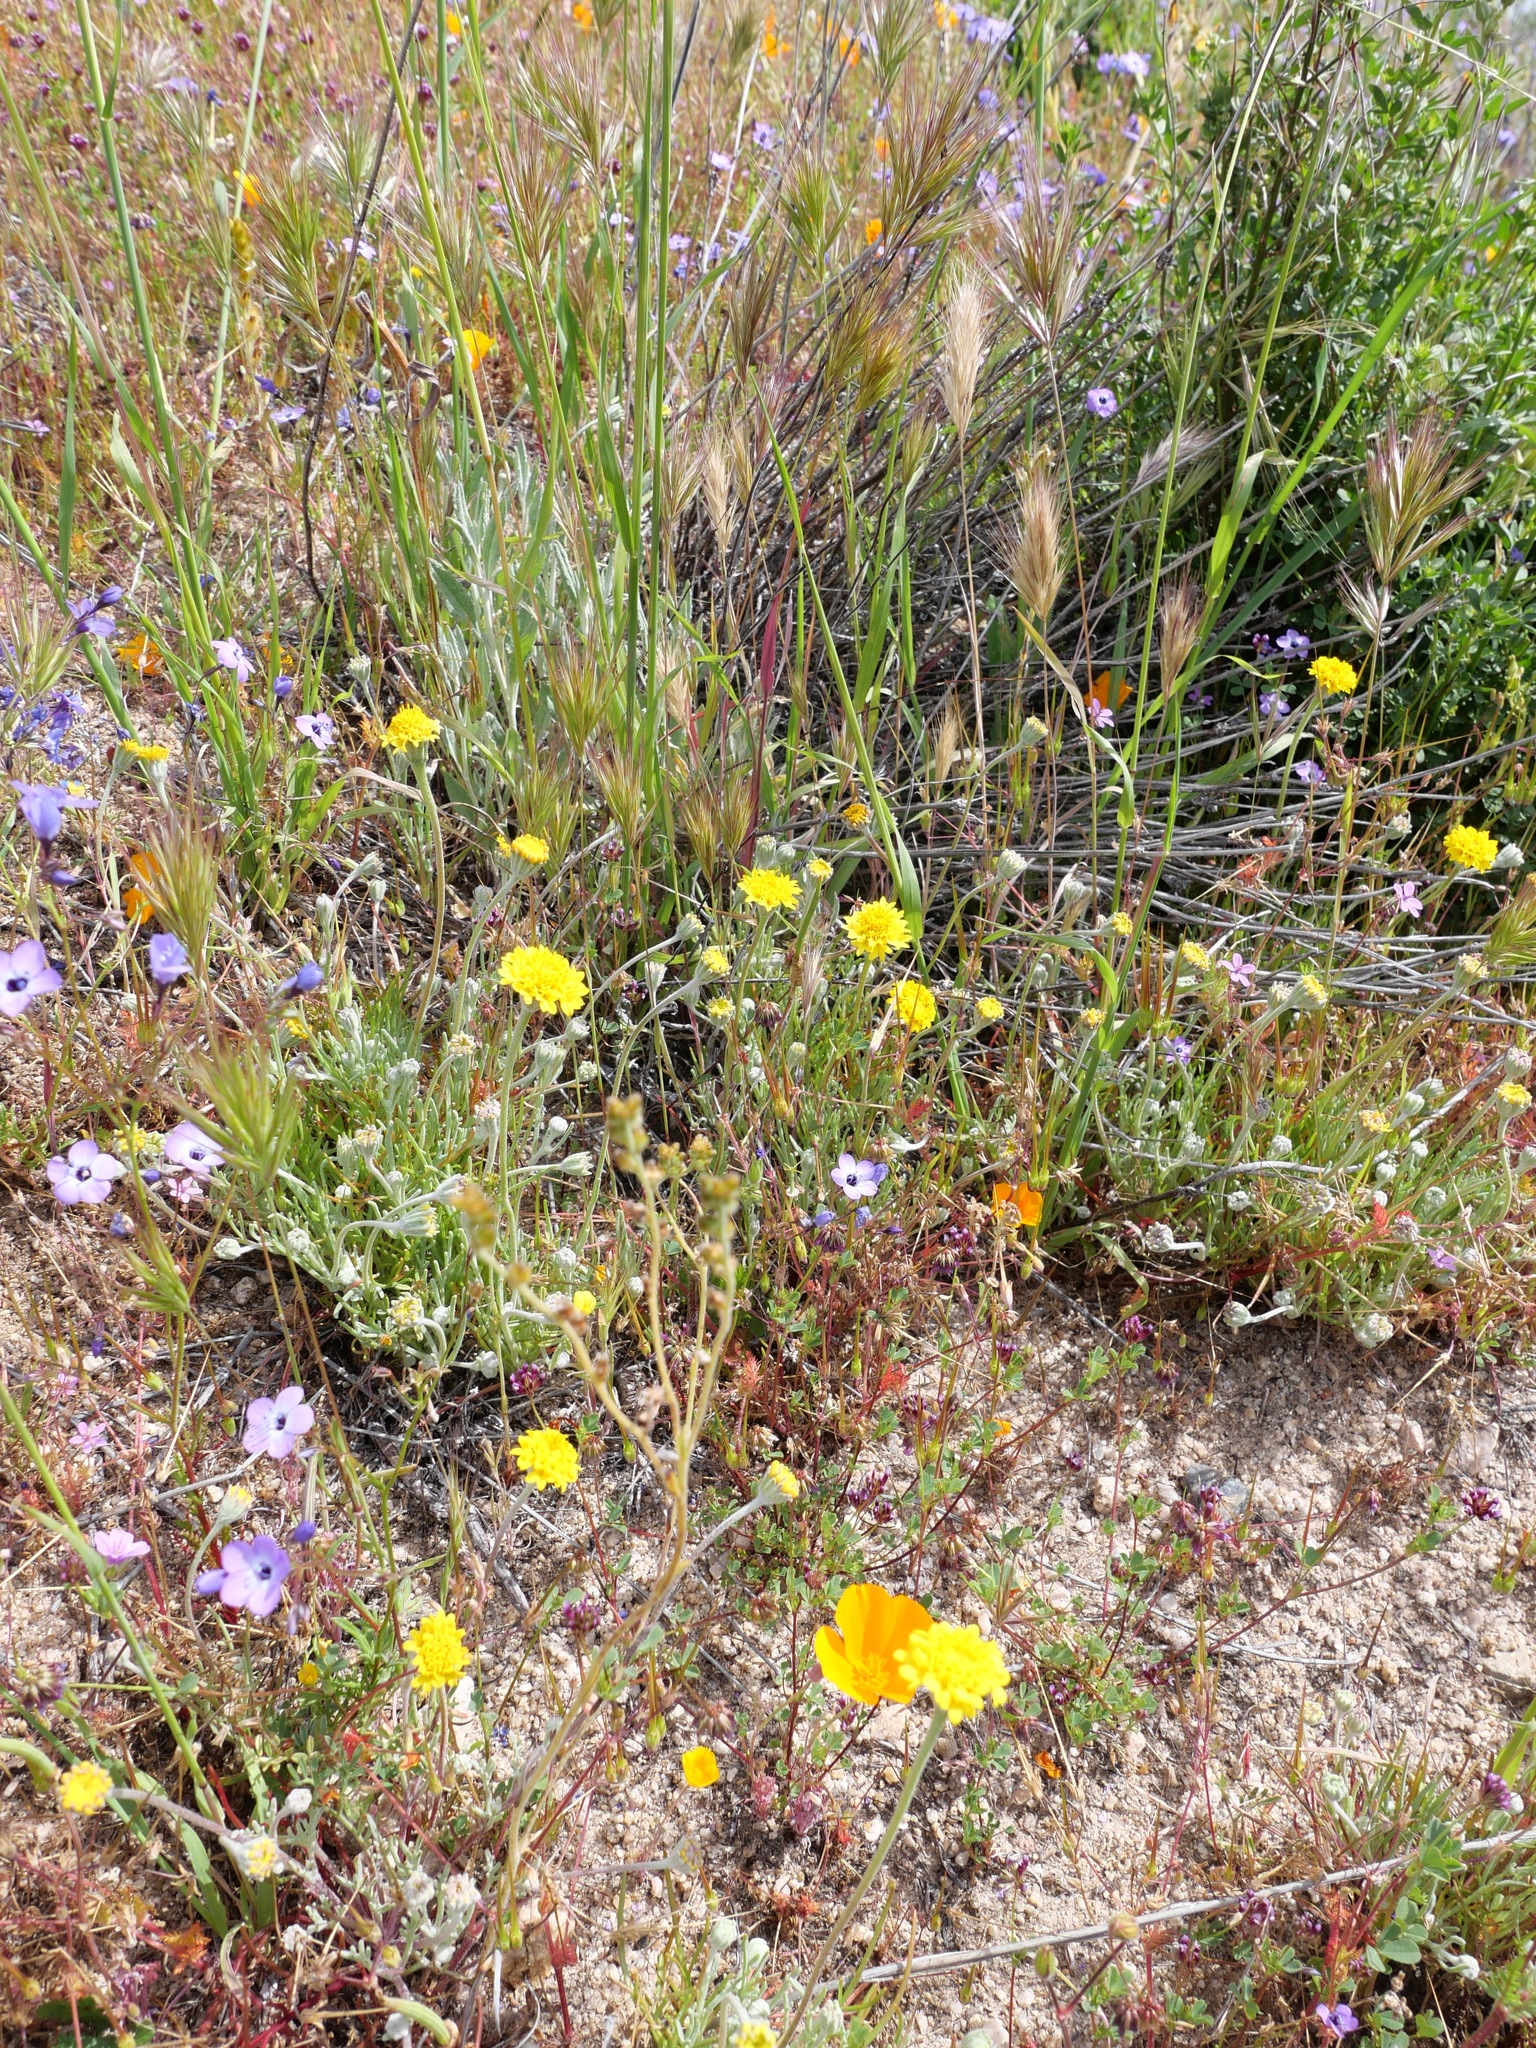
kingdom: Plantae
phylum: Tracheophyta
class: Magnoliopsida
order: Asterales
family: Asteraceae
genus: Chaenactis
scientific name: Chaenactis glabriuscula
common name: Yellow pincushion
